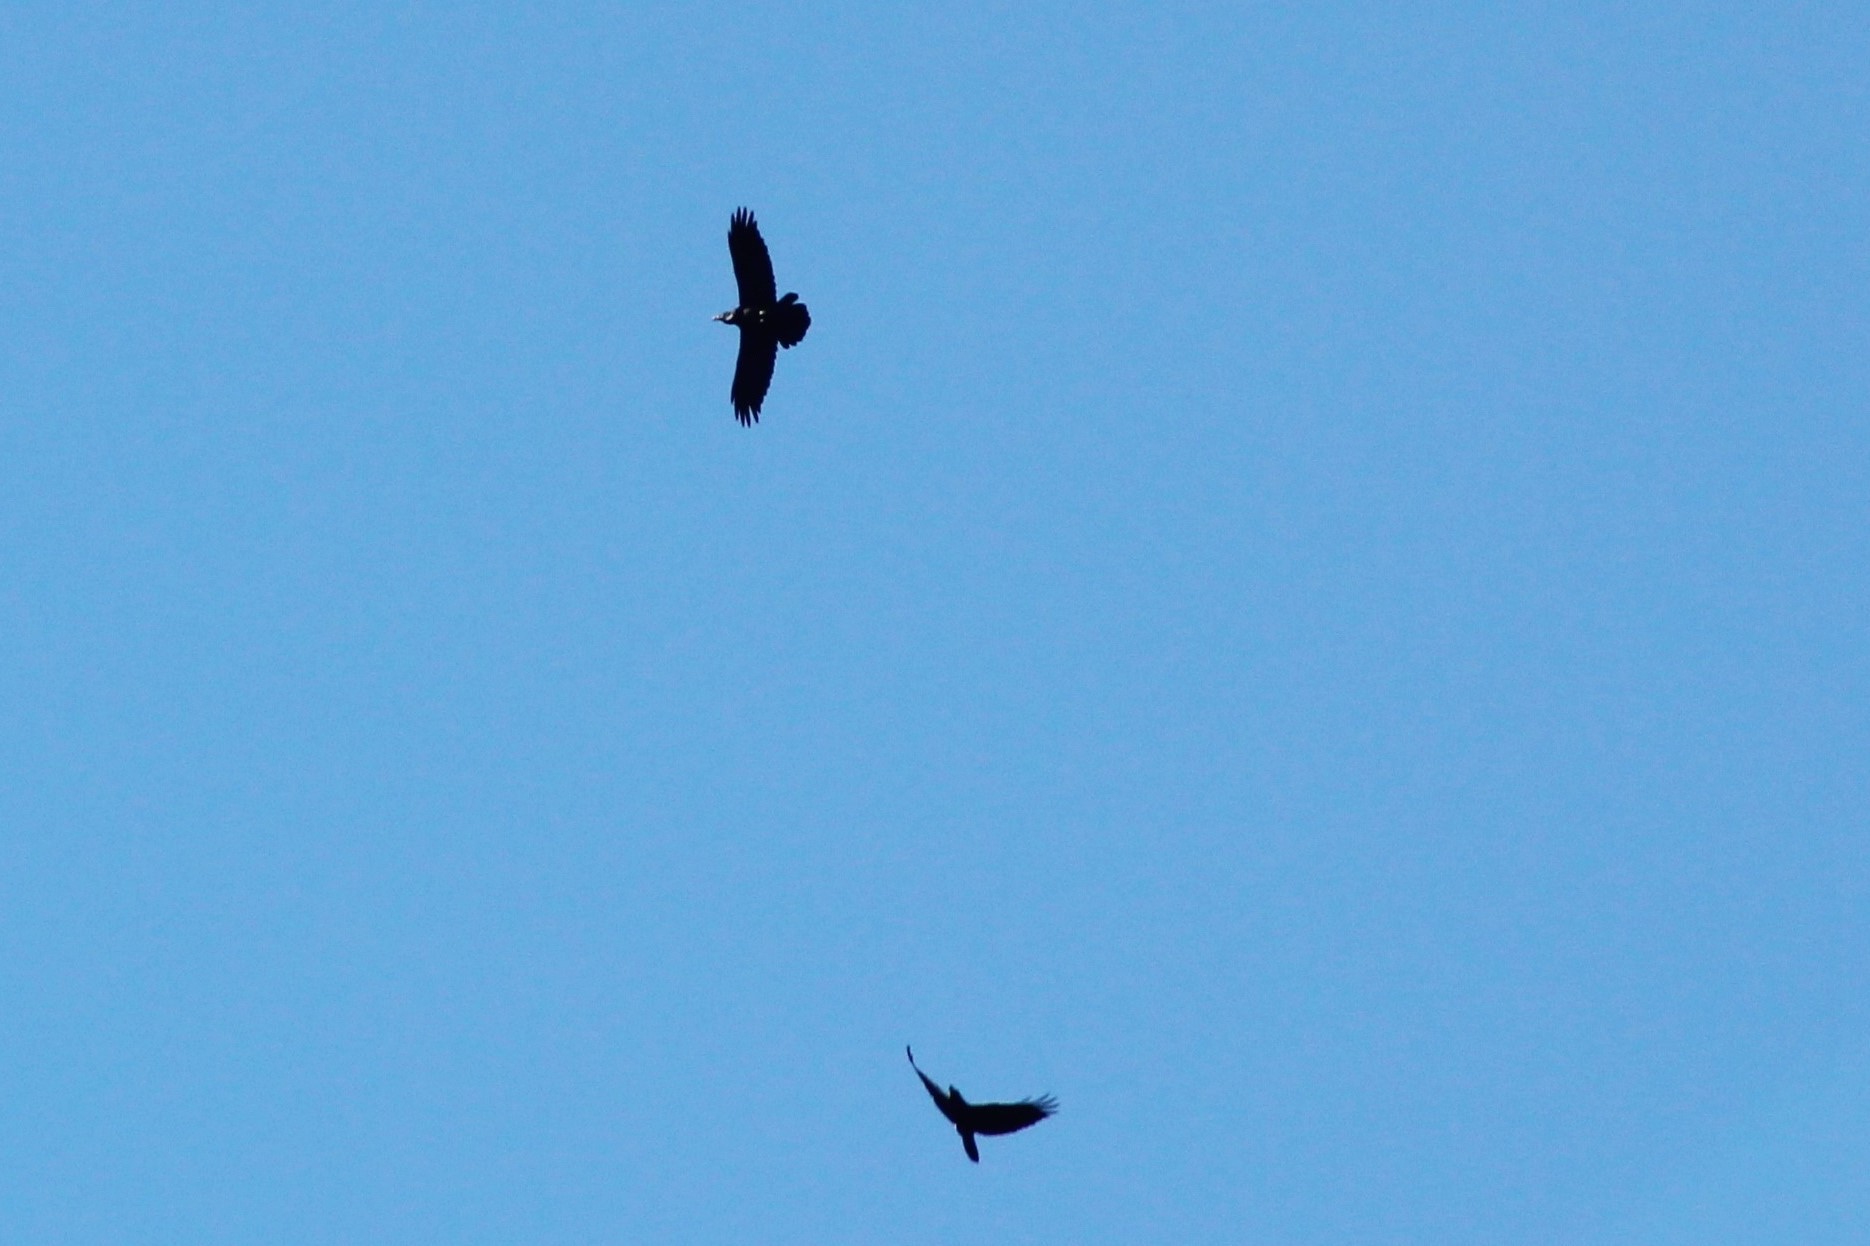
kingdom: Animalia
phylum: Chordata
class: Aves
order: Passeriformes
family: Corvidae
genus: Corvus
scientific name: Corvus corax
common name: Common raven
